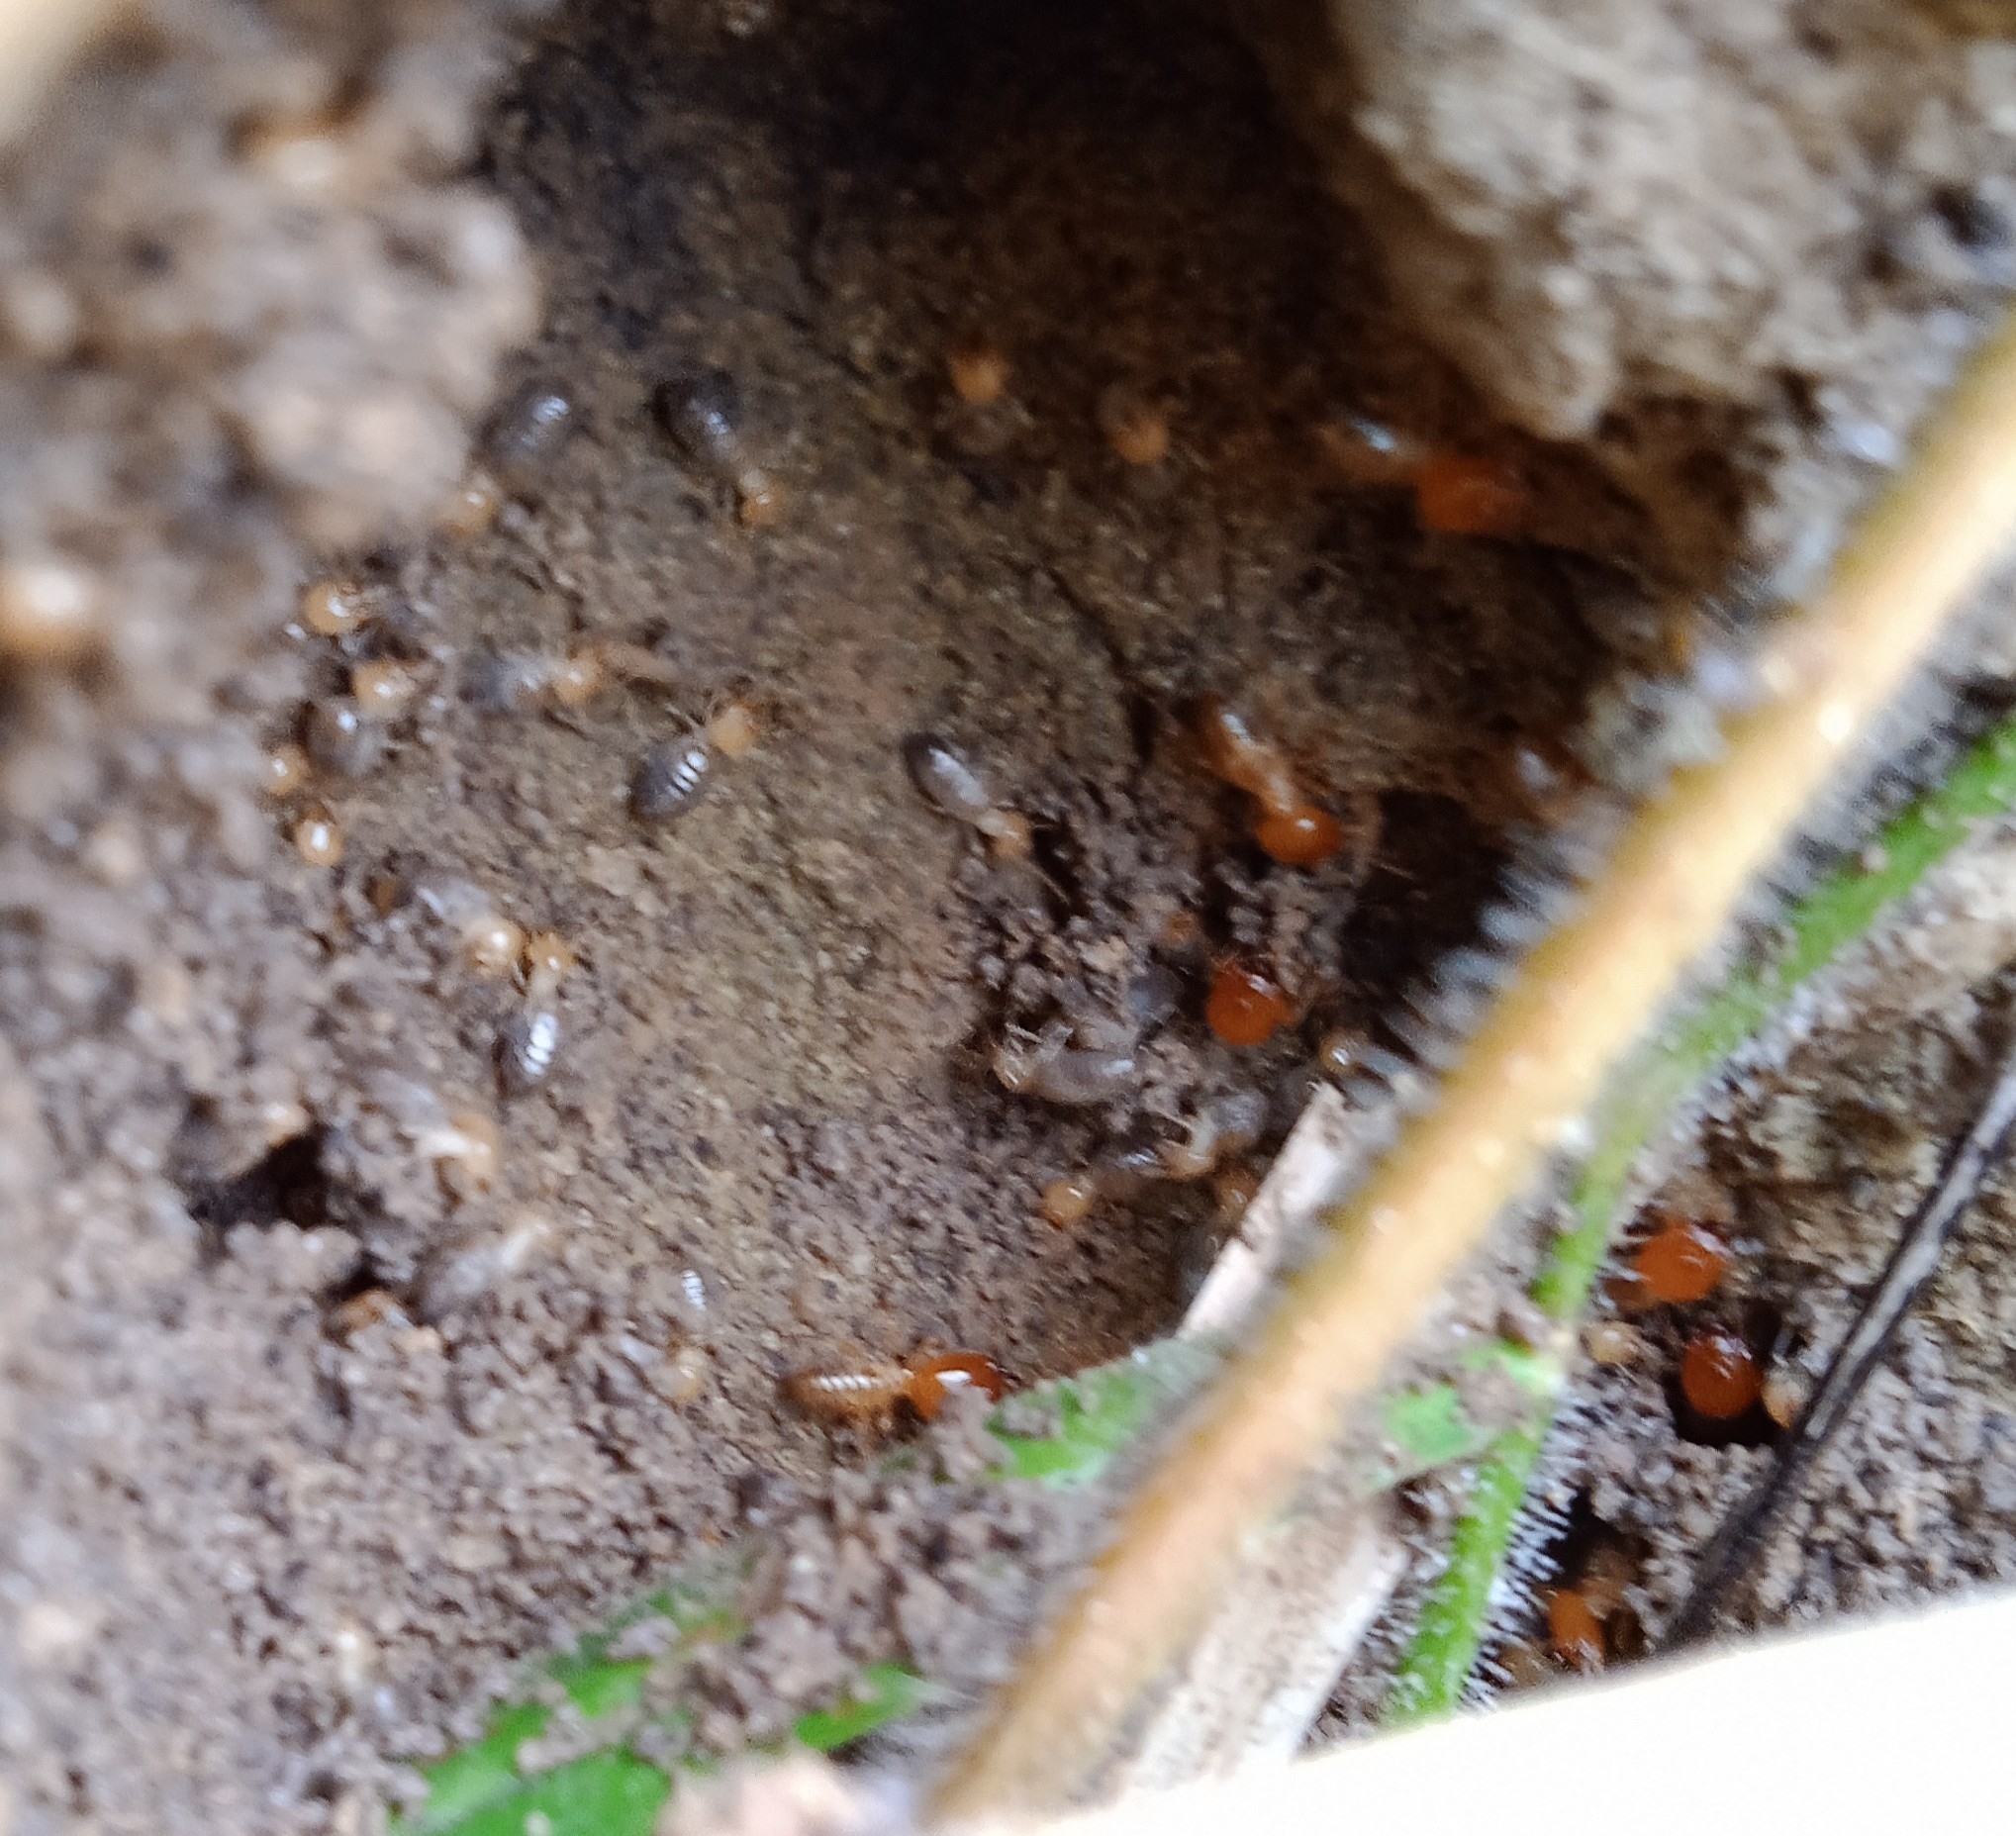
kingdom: Animalia
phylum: Arthropoda
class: Insecta
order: Blattodea
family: Termitidae
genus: Cornitermes
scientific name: Cornitermes cumulans
